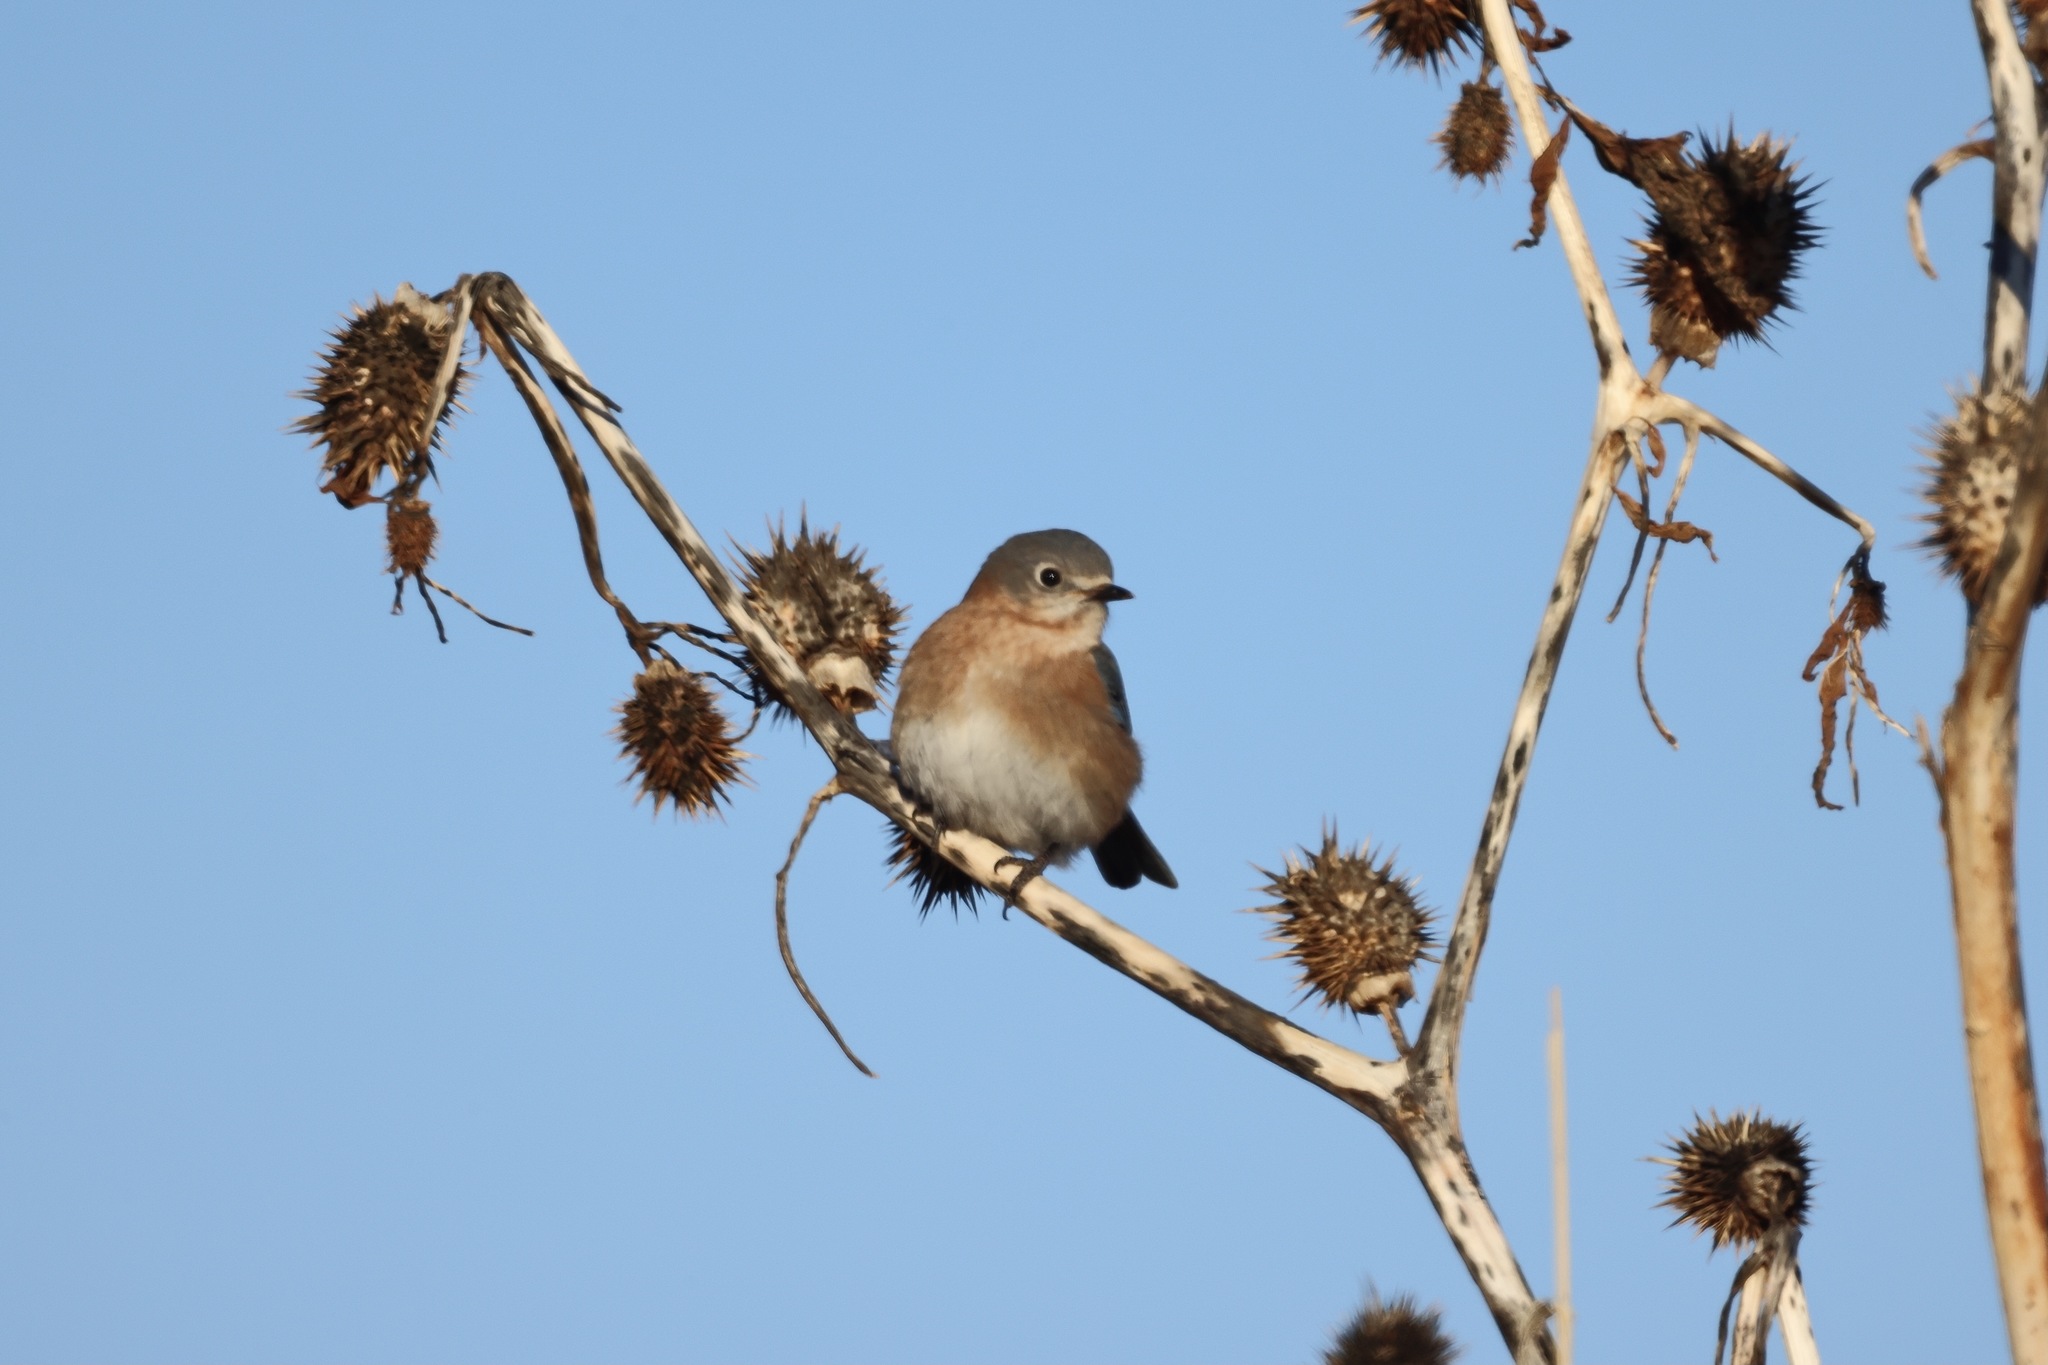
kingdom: Animalia
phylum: Chordata
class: Aves
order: Passeriformes
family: Turdidae
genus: Sialia
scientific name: Sialia sialis
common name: Eastern bluebird
